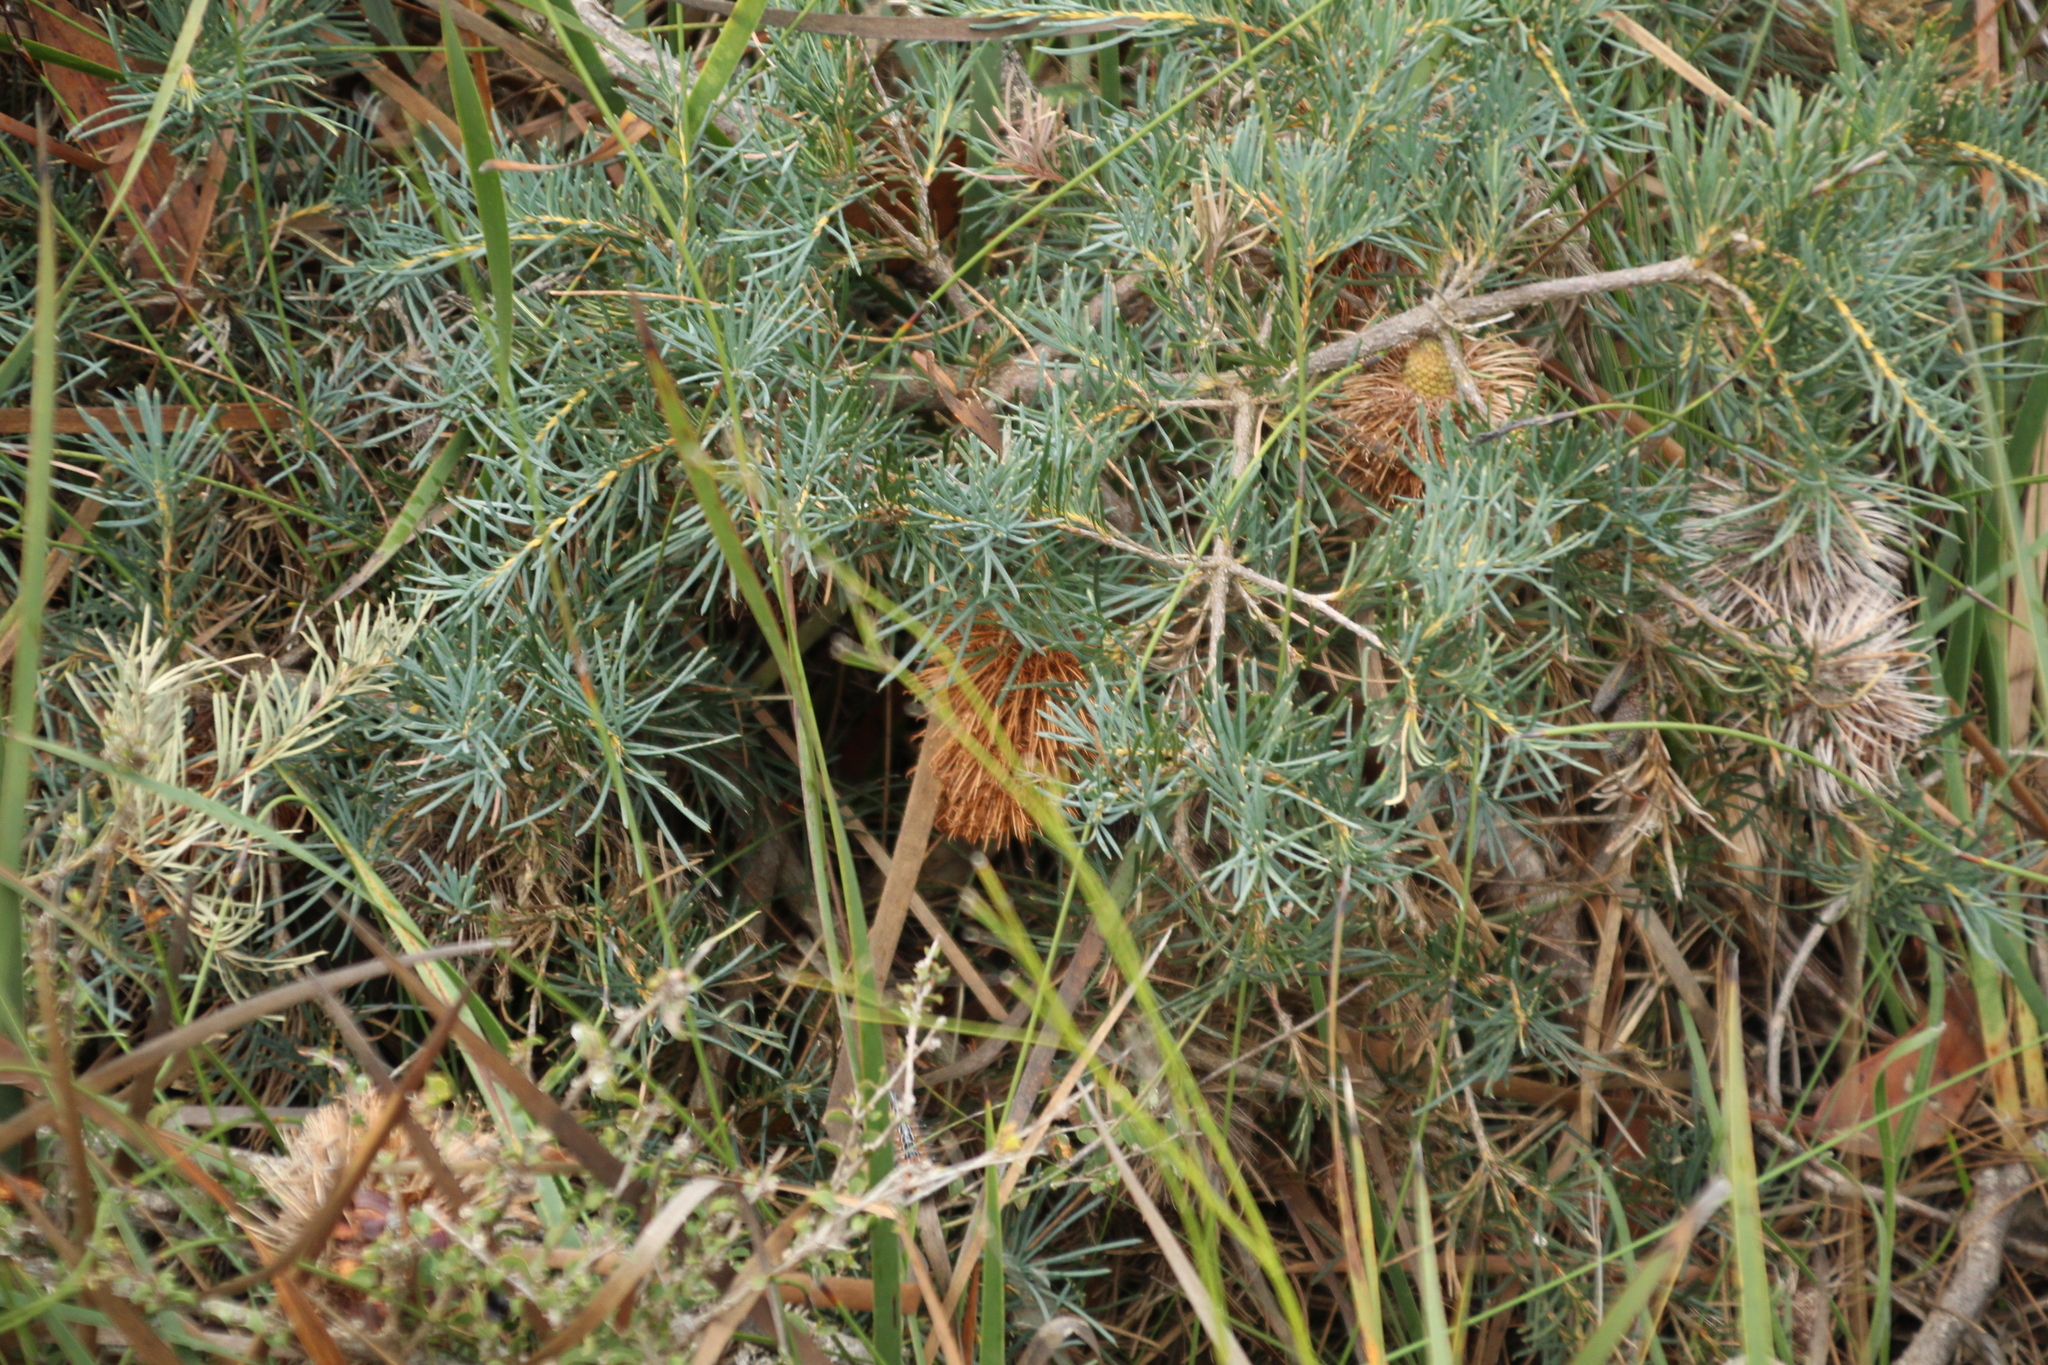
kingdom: Plantae
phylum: Tracheophyta
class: Magnoliopsida
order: Proteales
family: Proteaceae
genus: Banksia
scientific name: Banksia nutans
